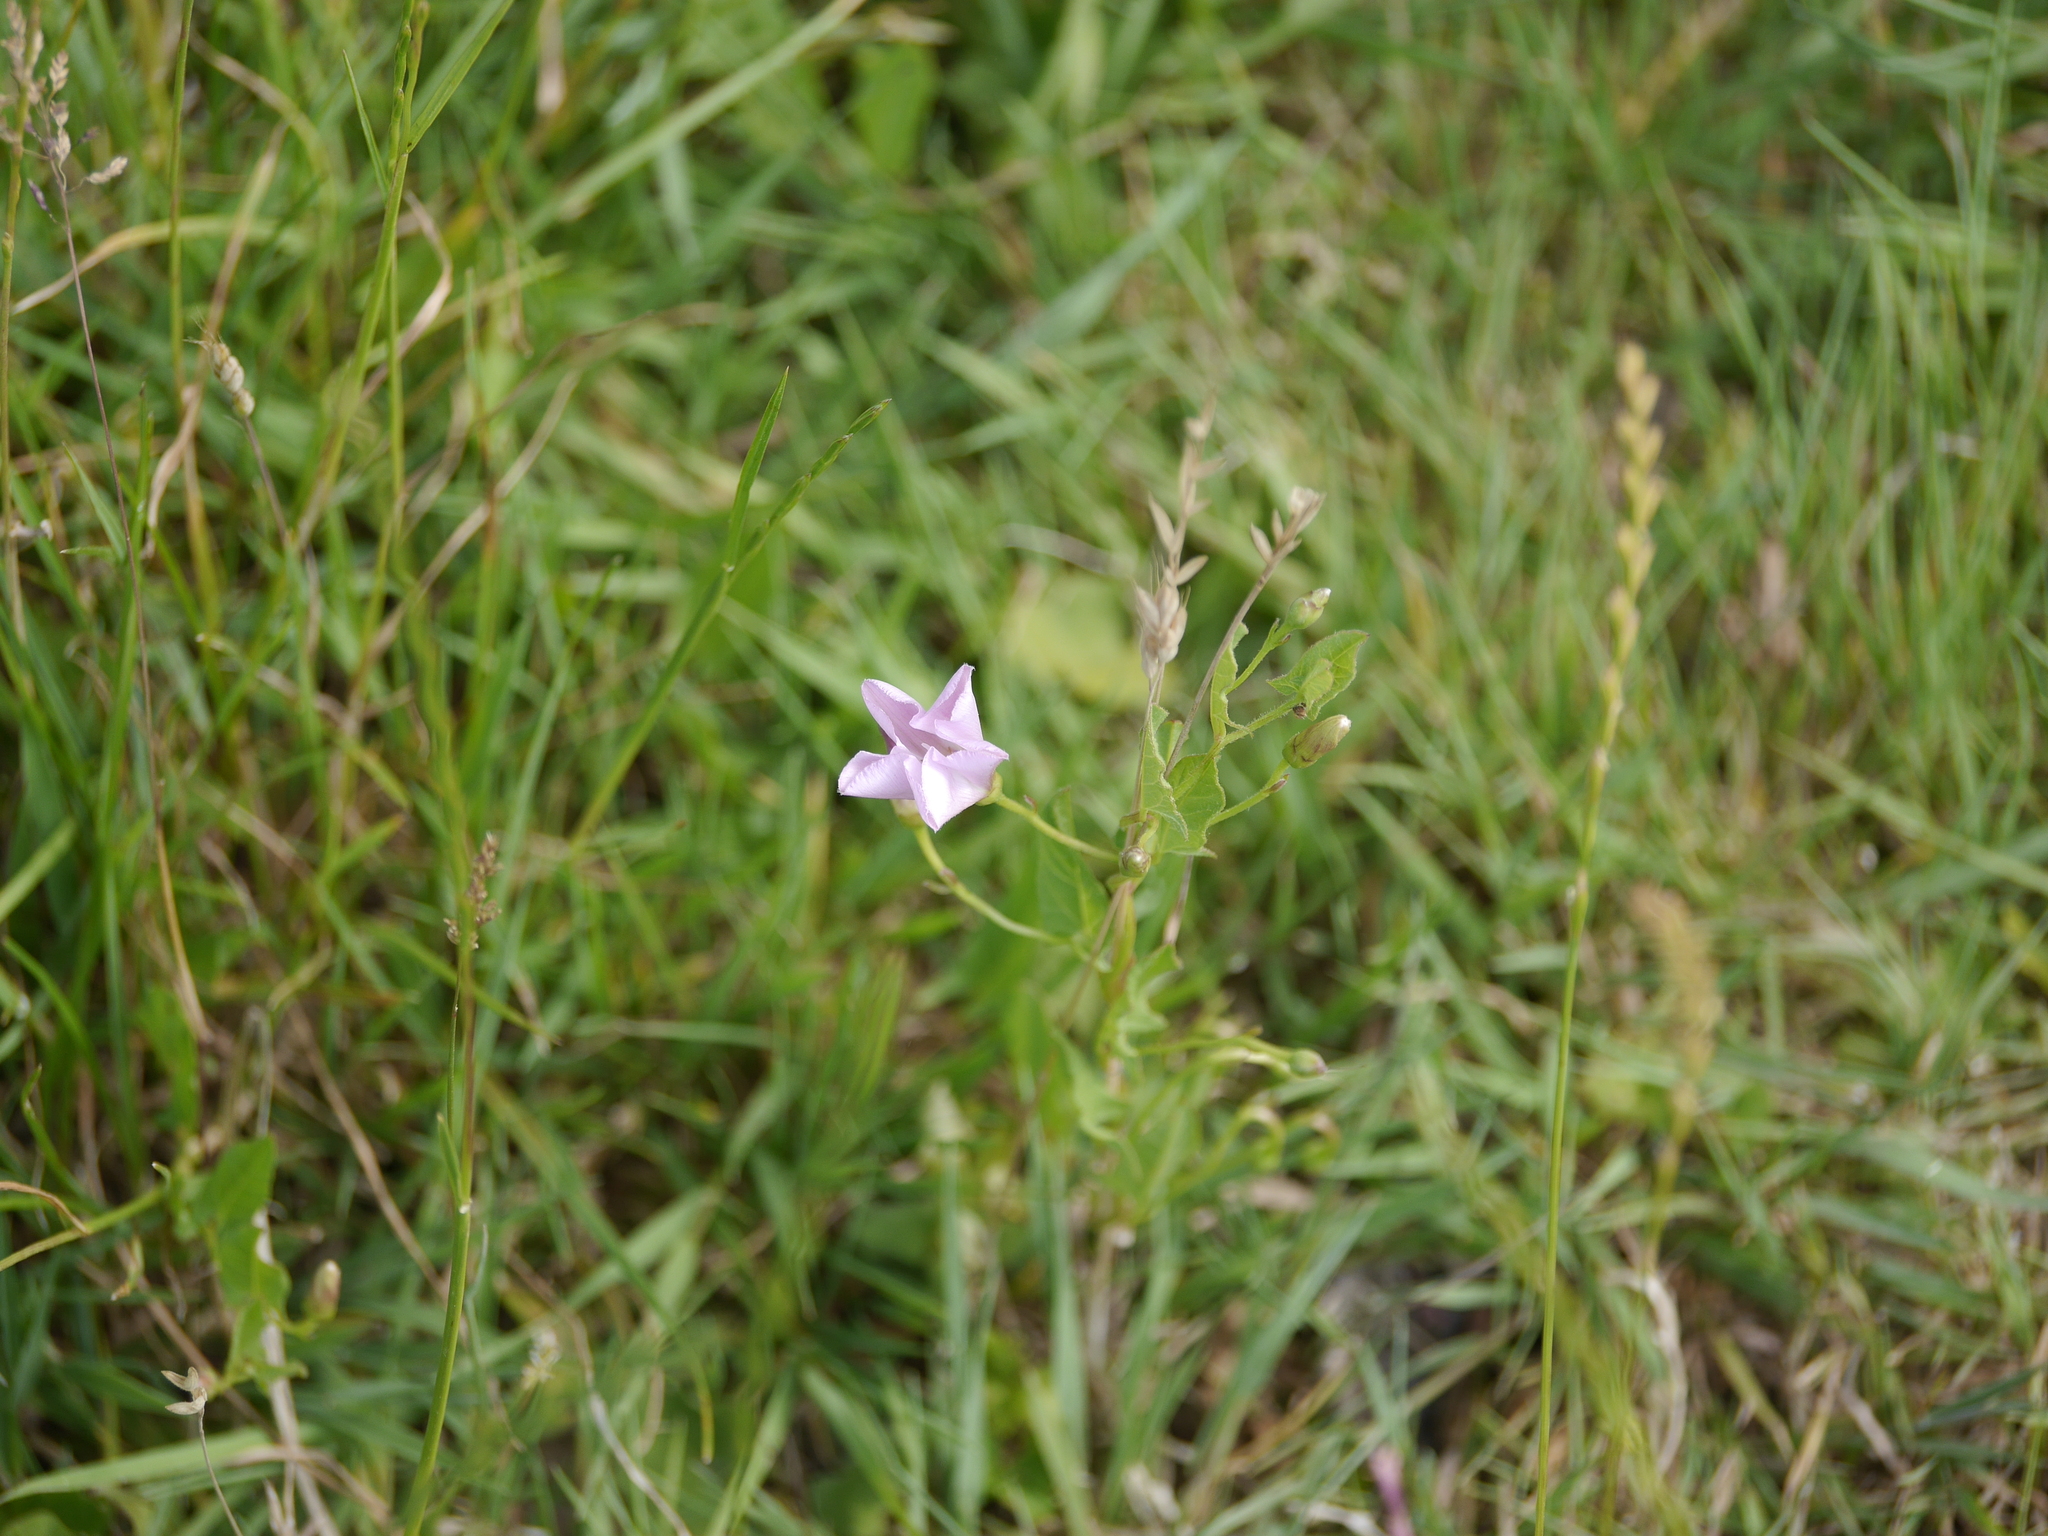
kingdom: Plantae
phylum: Tracheophyta
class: Magnoliopsida
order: Solanales
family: Convolvulaceae
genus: Convolvulus
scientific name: Convolvulus arvensis
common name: Field bindweed
